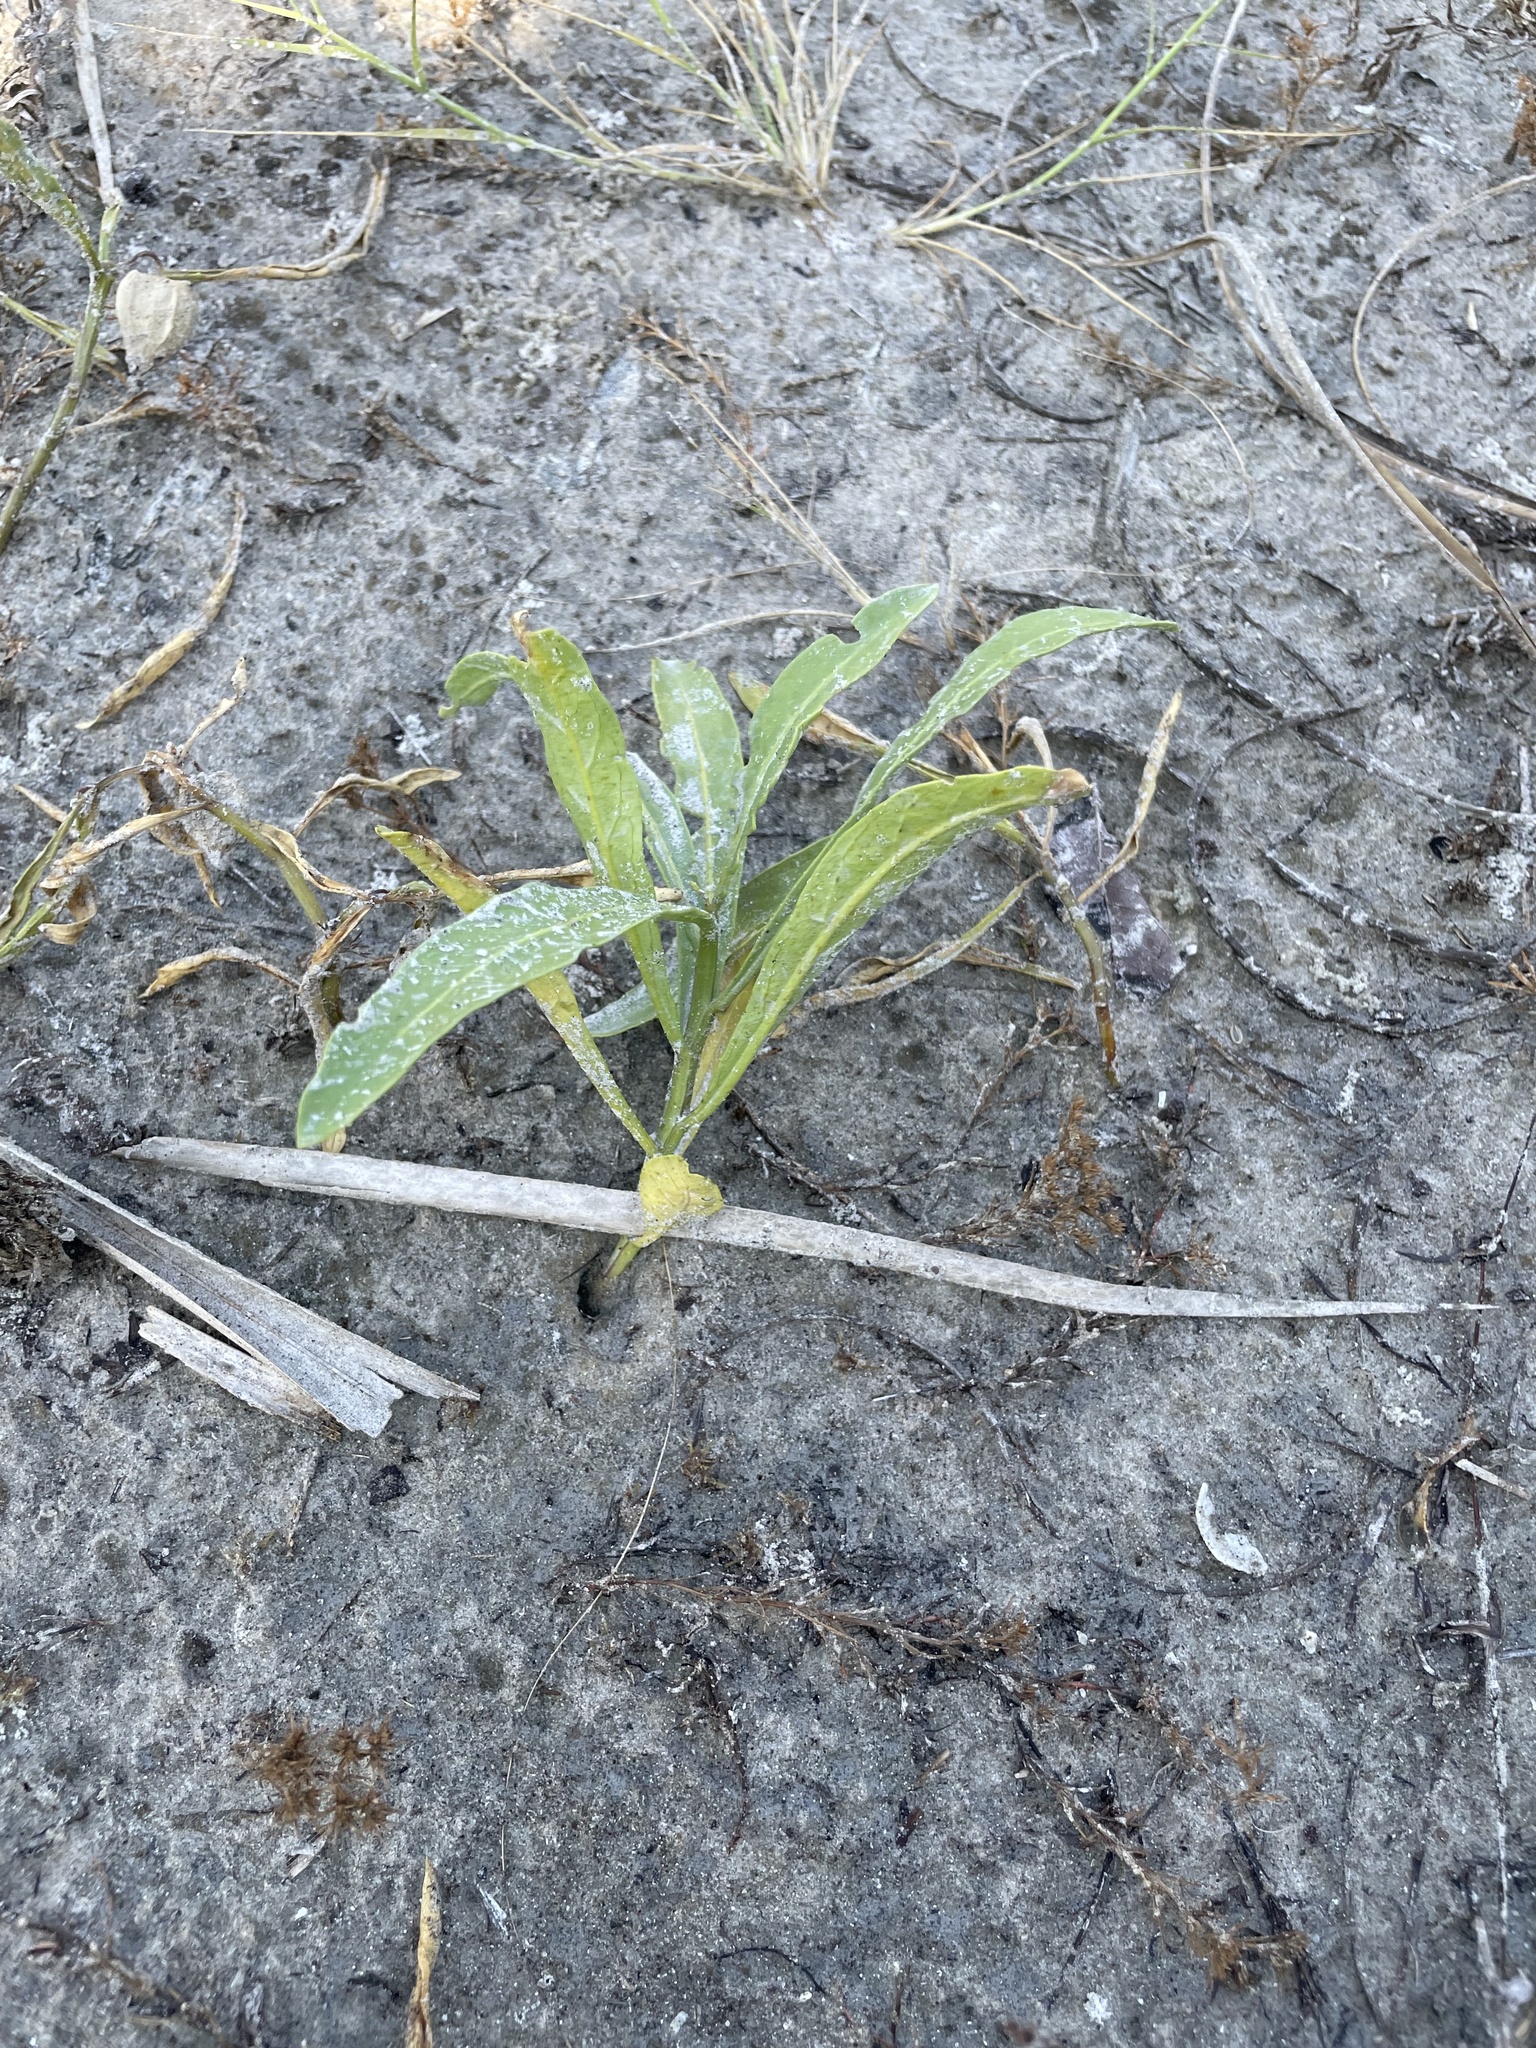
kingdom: Plantae
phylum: Tracheophyta
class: Magnoliopsida
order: Solanales
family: Solanaceae
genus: Physalis
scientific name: Physalis elliottii
